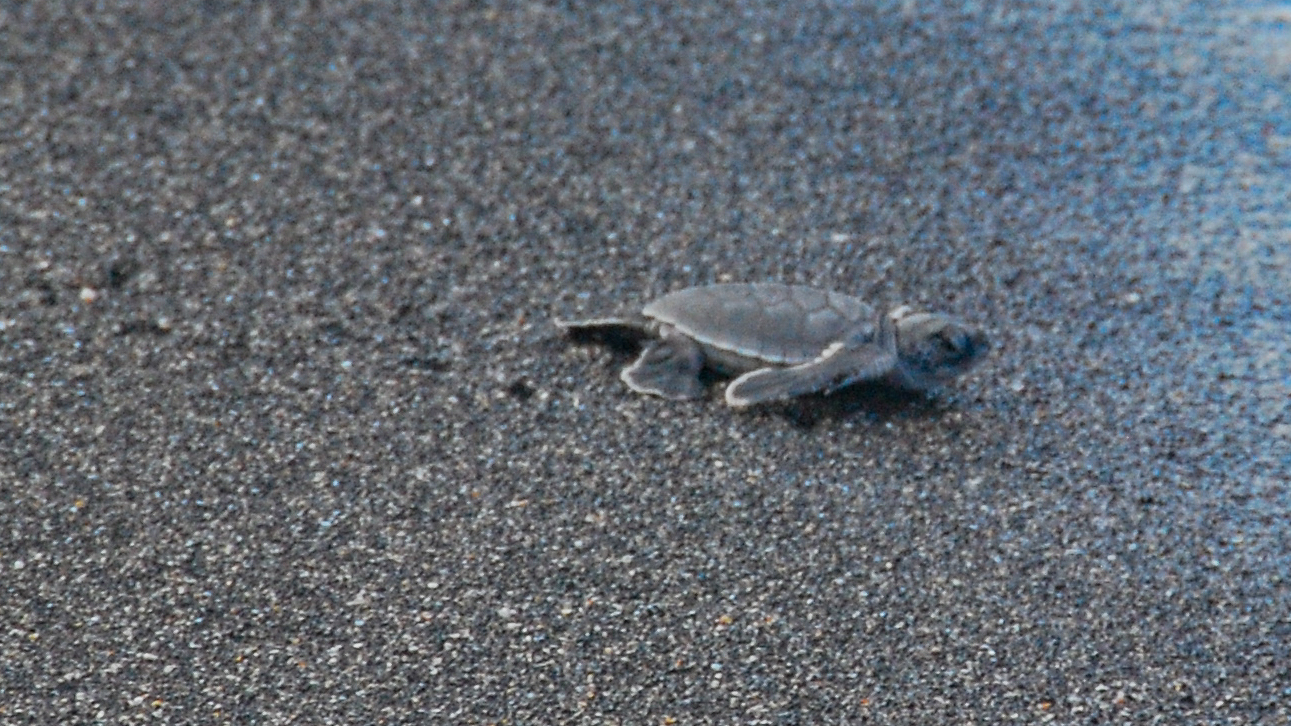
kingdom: Animalia
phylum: Chordata
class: Testudines
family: Cheloniidae
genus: Chelonia
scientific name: Chelonia mydas
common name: Green turtle
